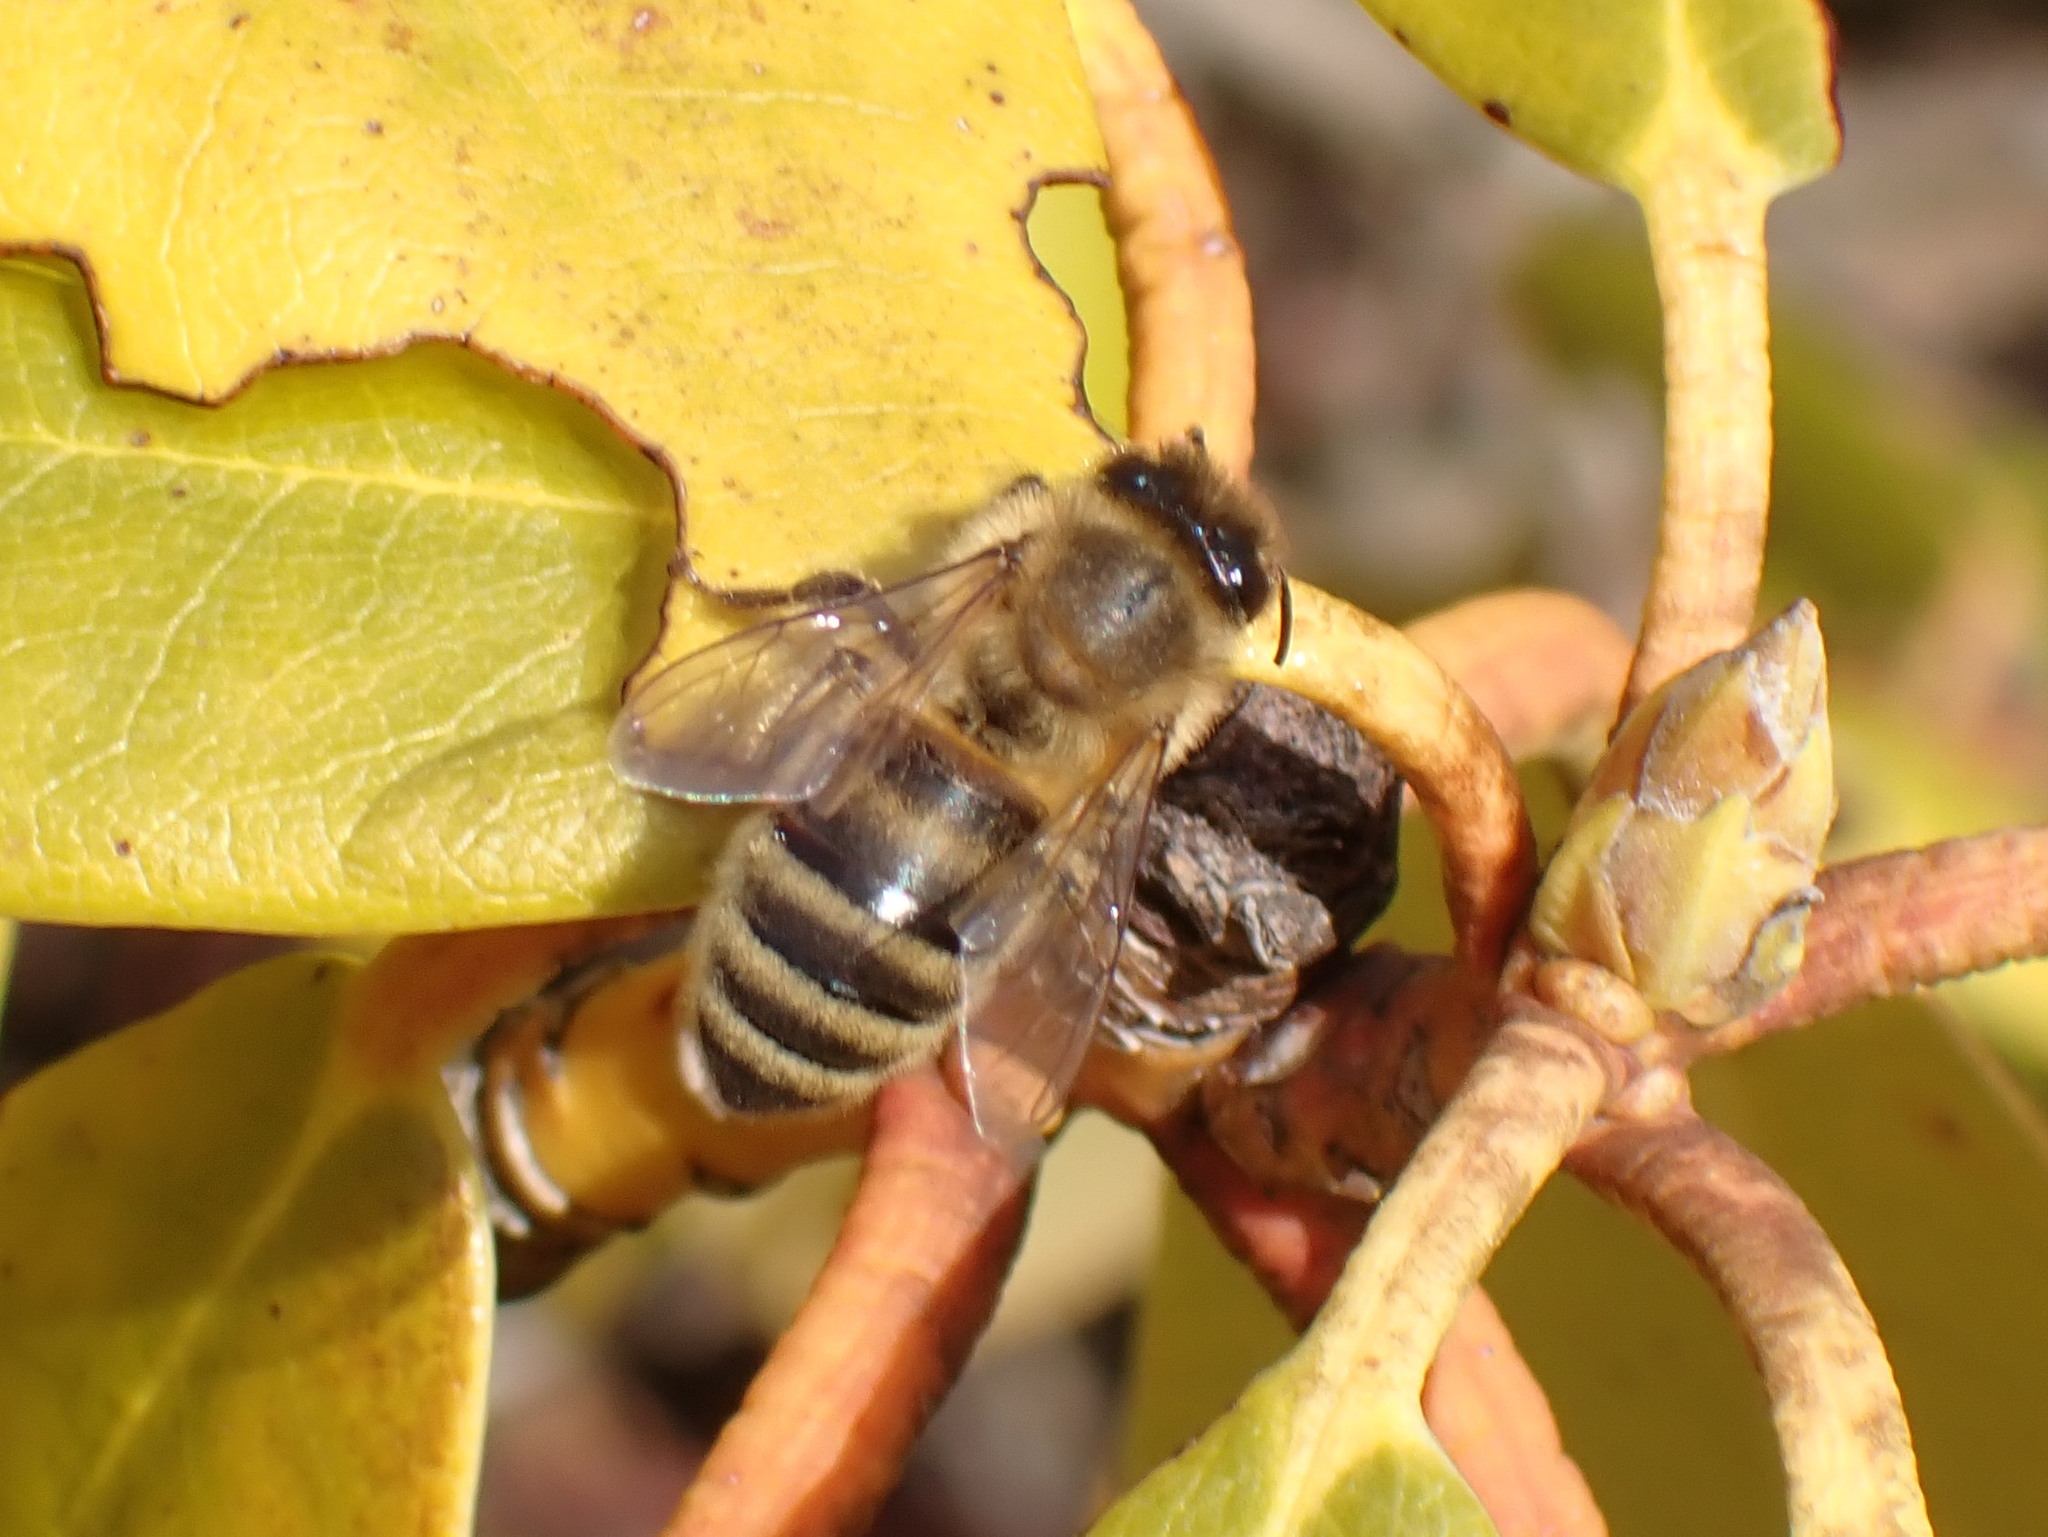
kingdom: Animalia
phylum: Arthropoda
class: Insecta
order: Hymenoptera
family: Apidae
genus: Apis
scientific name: Apis mellifera
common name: Honey bee
